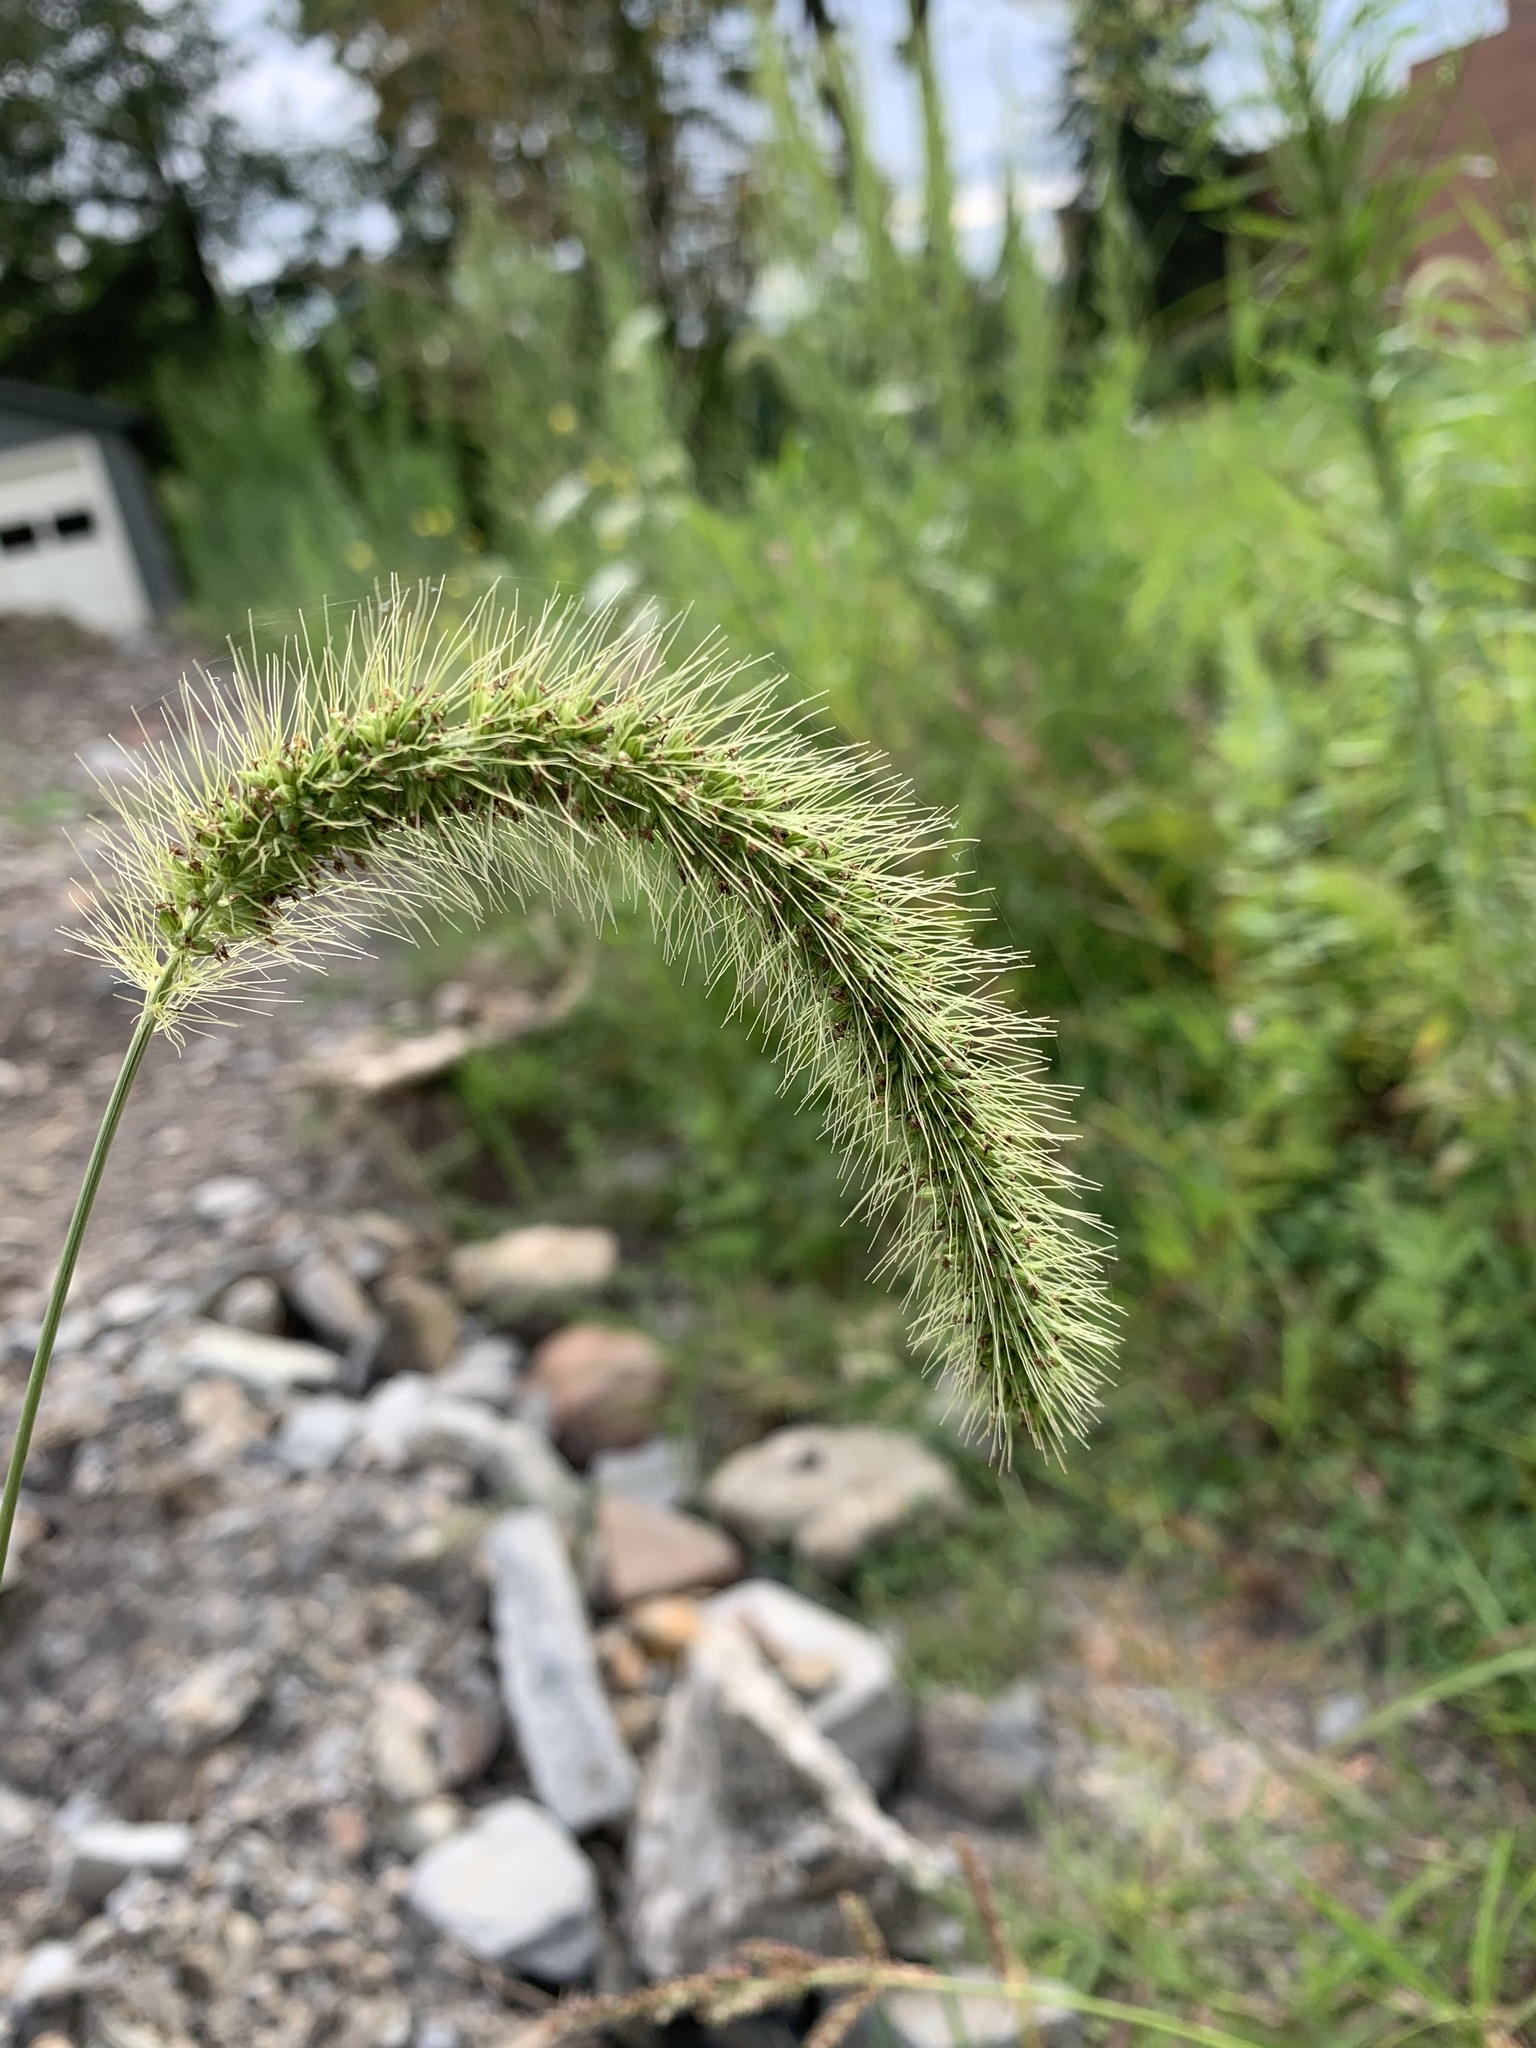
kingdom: Plantae
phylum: Tracheophyta
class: Liliopsida
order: Poales
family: Poaceae
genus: Setaria
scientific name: Setaria faberi
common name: Nodding bristle-grass
